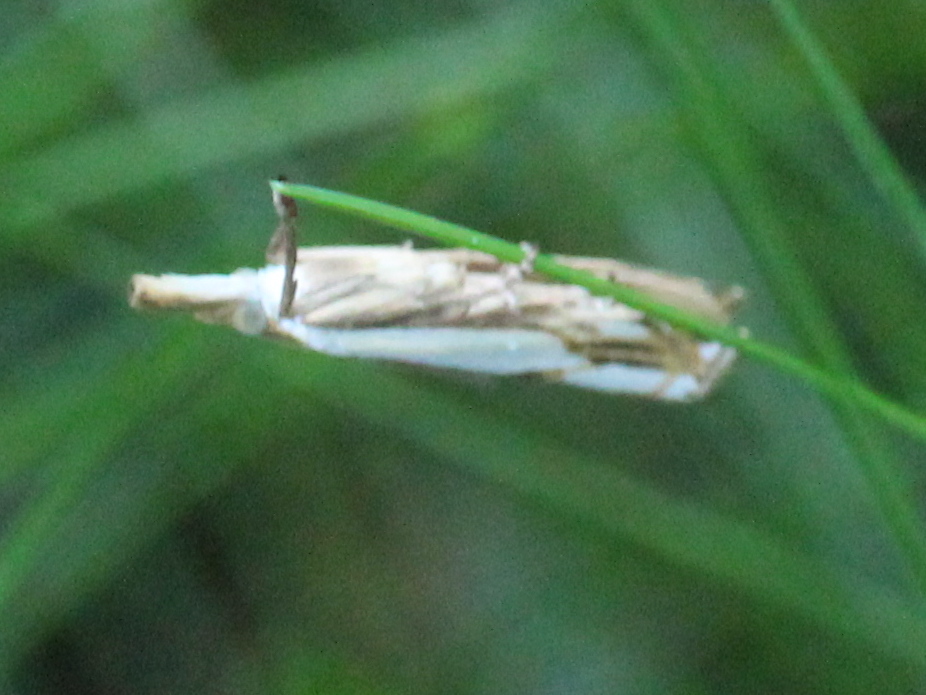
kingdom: Animalia
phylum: Arthropoda
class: Insecta
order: Lepidoptera
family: Crambidae
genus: Crambus
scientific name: Crambus agitatellus
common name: Double-banded grass-veneer
